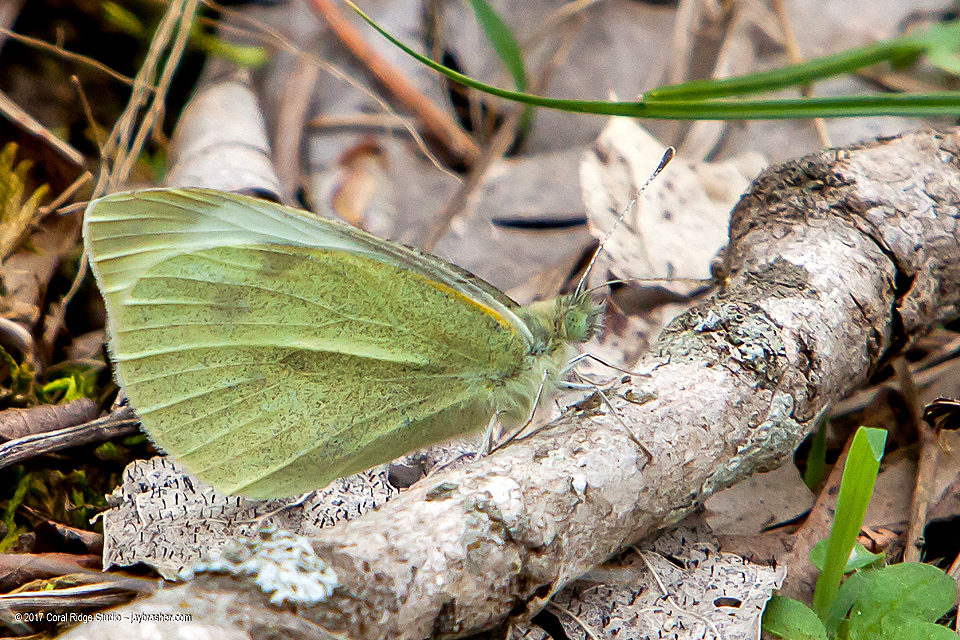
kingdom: Animalia
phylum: Arthropoda
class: Insecta
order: Lepidoptera
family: Pieridae
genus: Pieris
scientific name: Pieris rapae
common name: Small white
